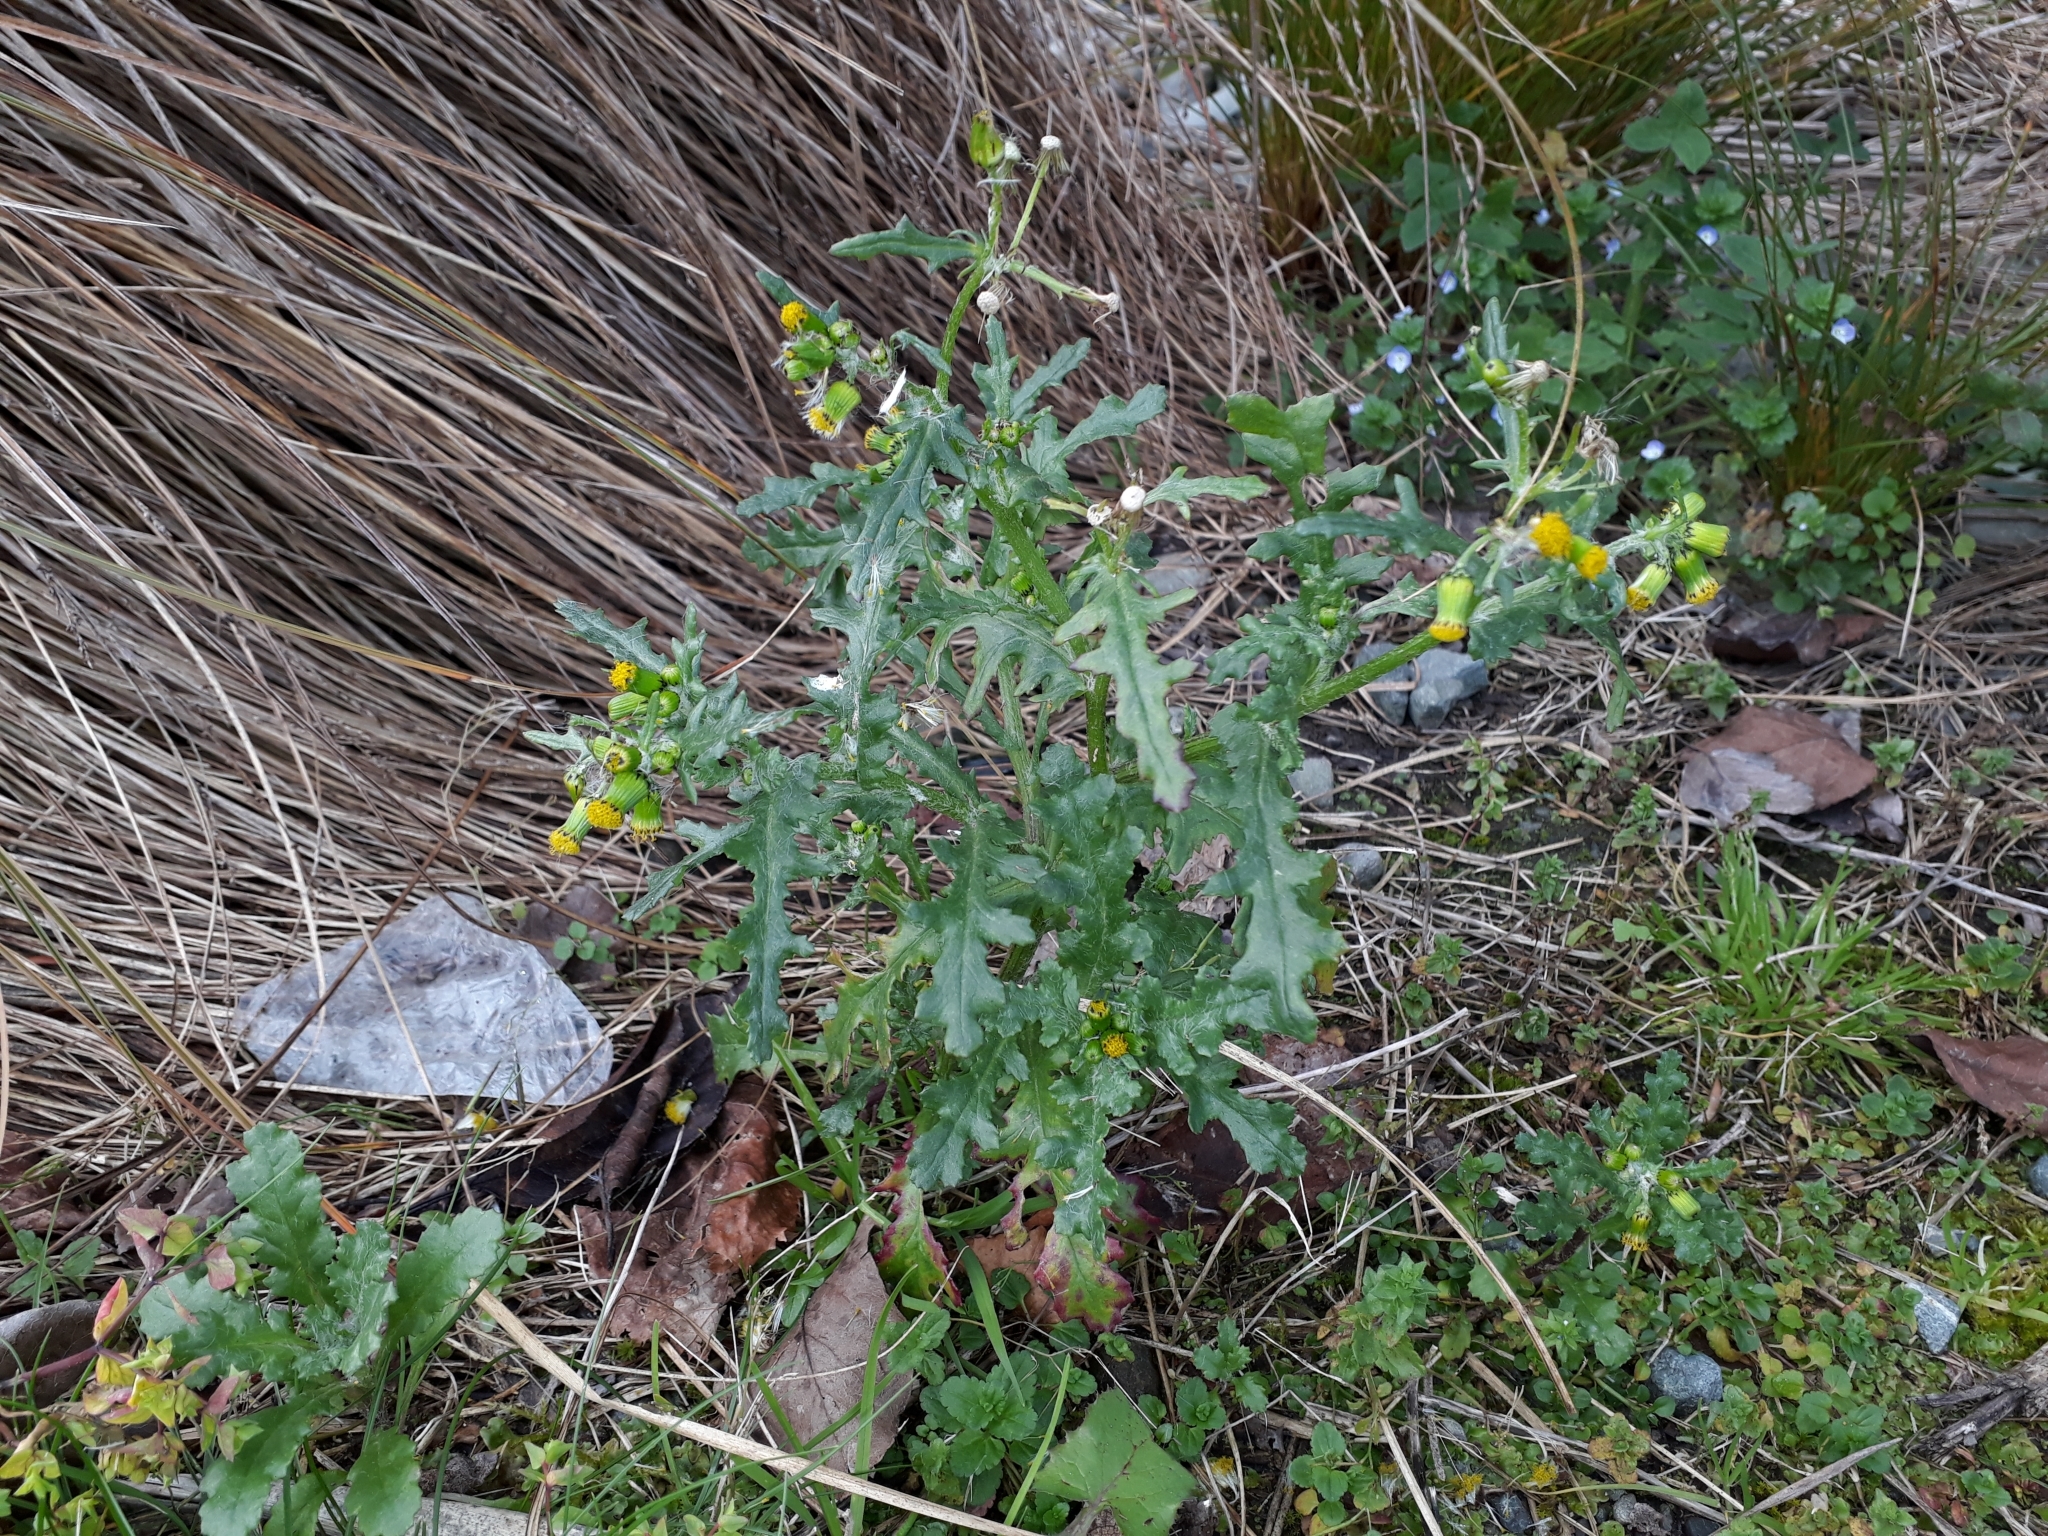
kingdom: Plantae
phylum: Tracheophyta
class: Magnoliopsida
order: Asterales
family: Asteraceae
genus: Senecio
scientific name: Senecio vulgaris
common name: Old-man-in-the-spring
